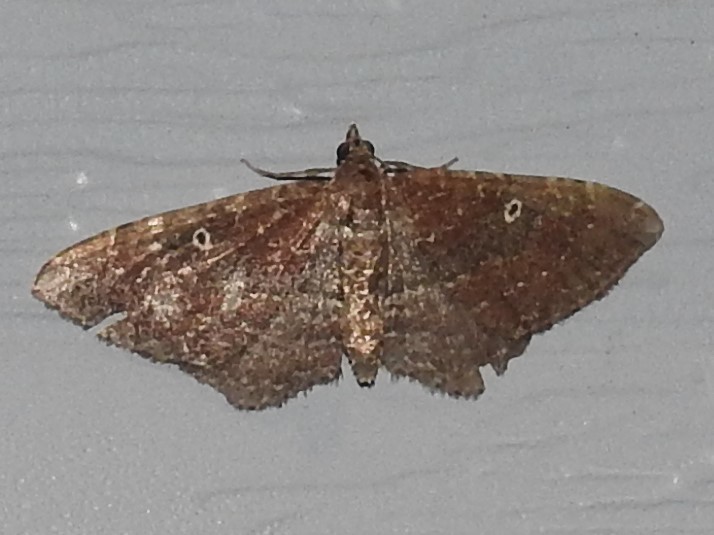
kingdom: Animalia
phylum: Arthropoda
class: Insecta
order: Lepidoptera
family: Geometridae
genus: Orthonama
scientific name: Orthonama obstipata
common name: The gem
